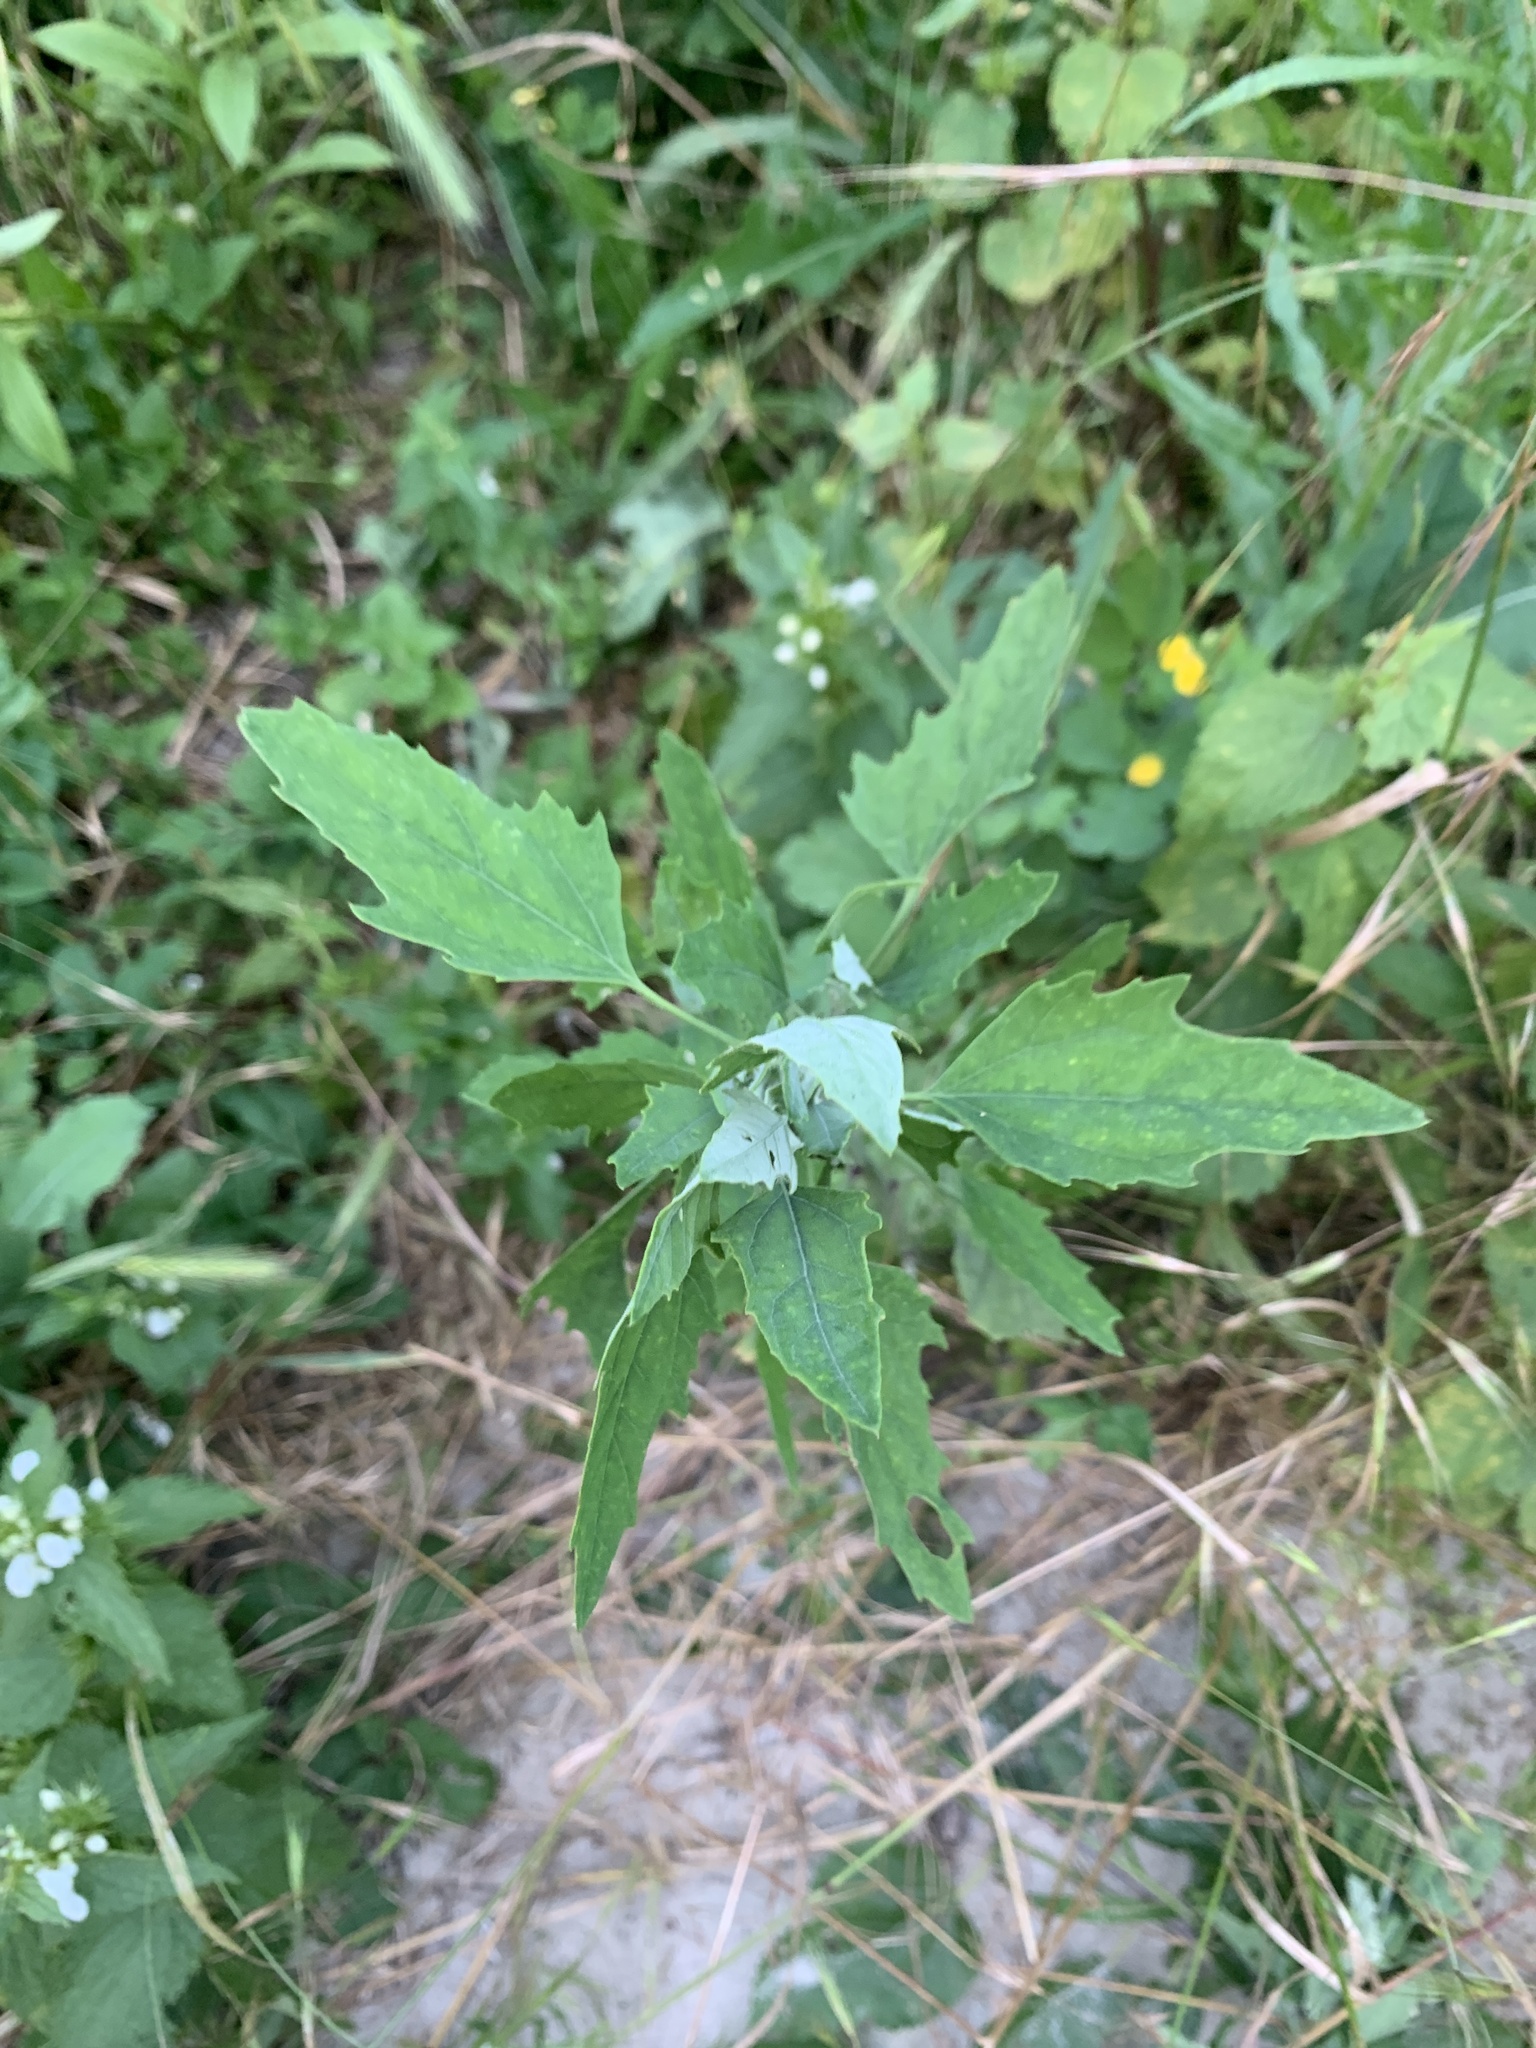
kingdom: Plantae
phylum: Tracheophyta
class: Magnoliopsida
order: Caryophyllales
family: Amaranthaceae
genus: Chenopodium
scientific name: Chenopodium album
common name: Fat-hen
